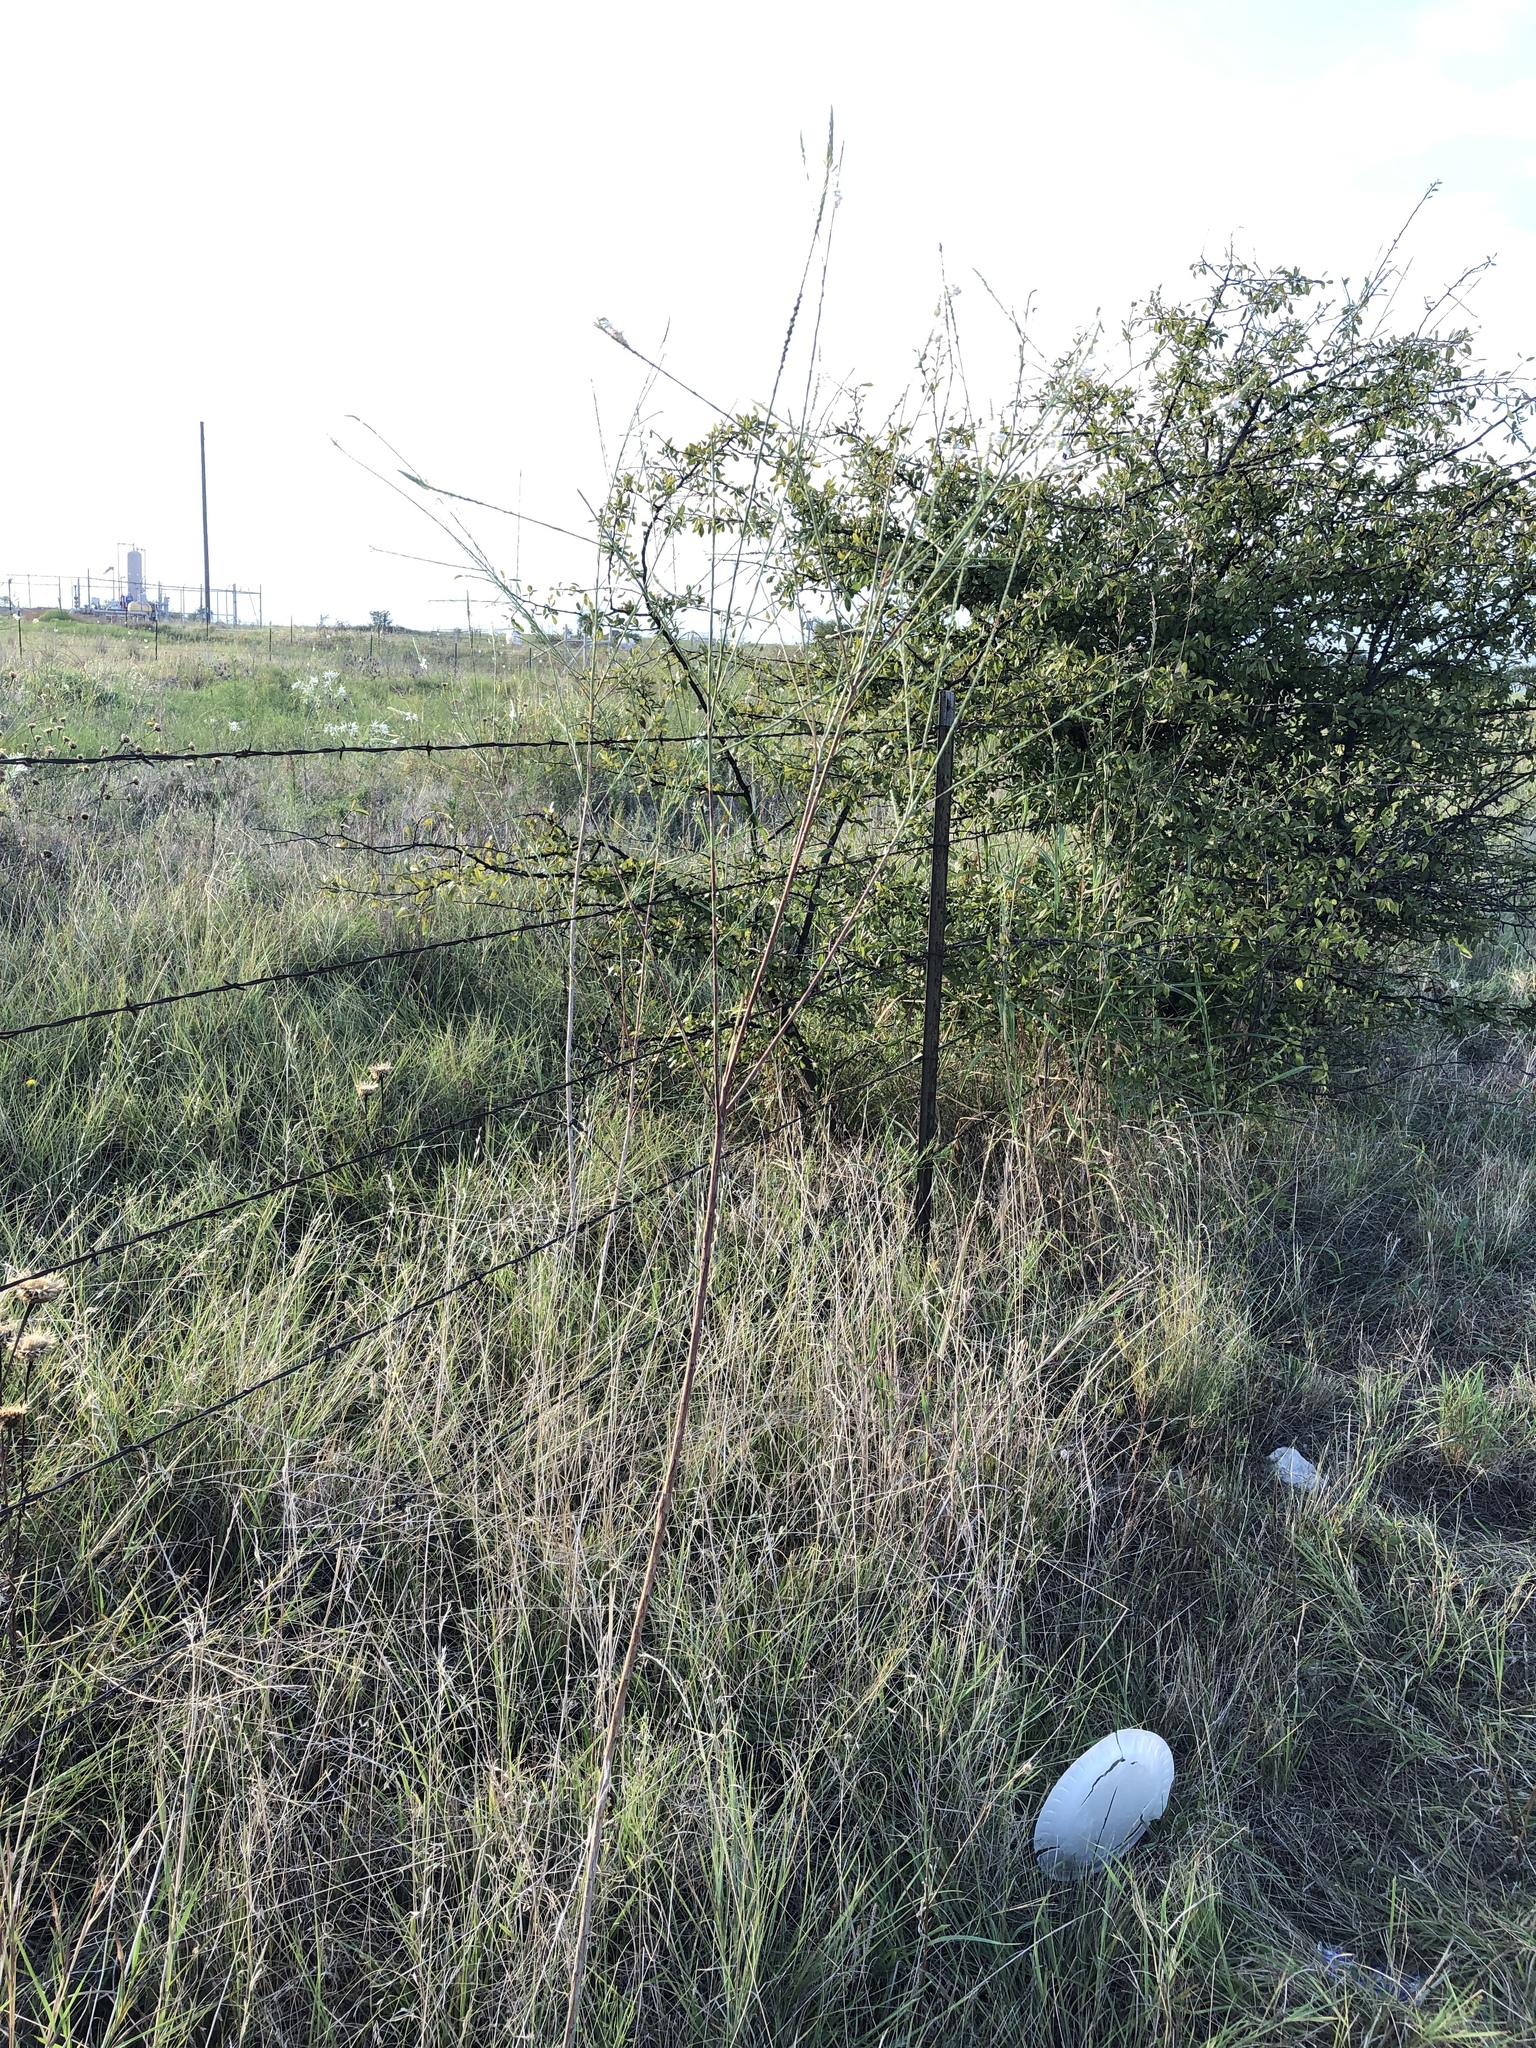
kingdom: Plantae
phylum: Tracheophyta
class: Magnoliopsida
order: Myrtales
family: Onagraceae
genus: Oenothera
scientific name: Oenothera glaucifolia
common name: False gaura
